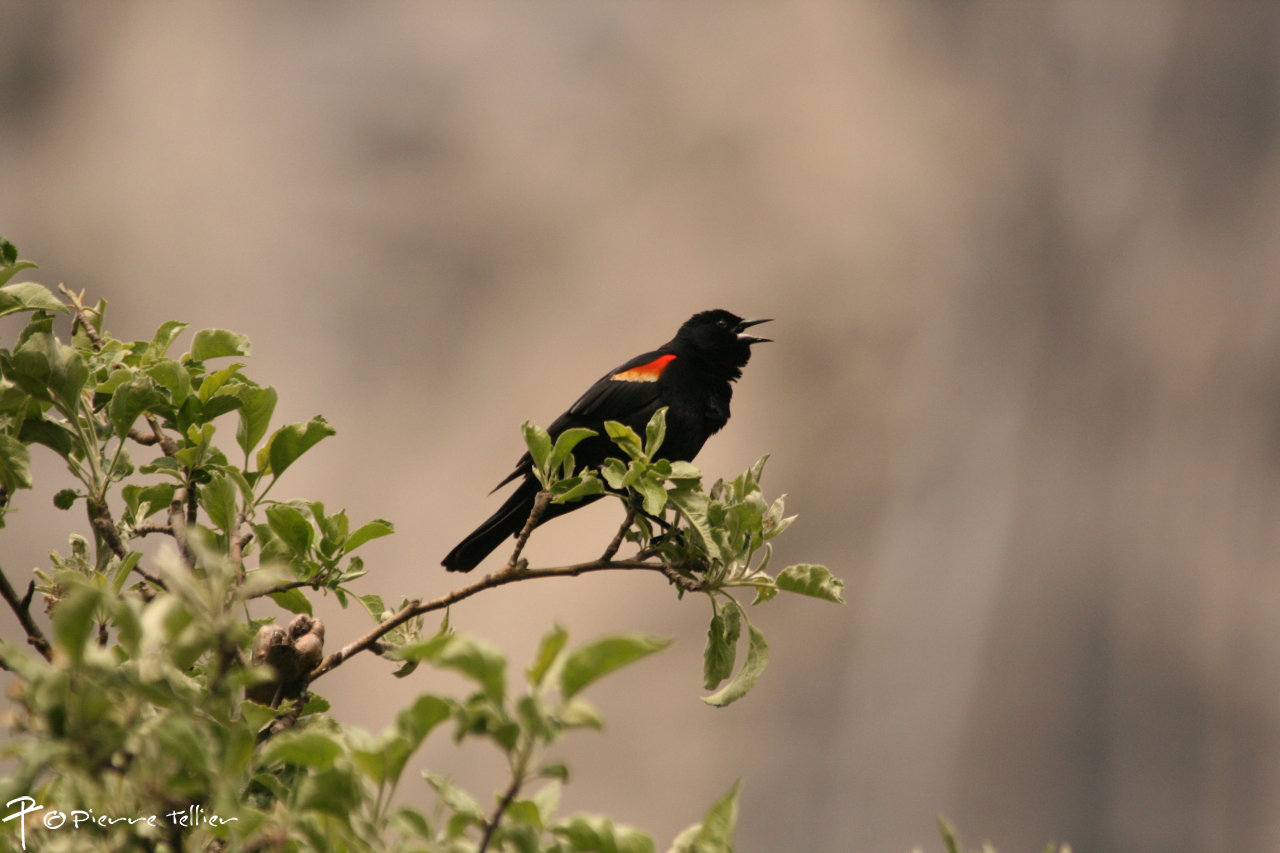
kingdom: Animalia
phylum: Chordata
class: Aves
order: Passeriformes
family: Icteridae
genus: Agelaius
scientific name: Agelaius phoeniceus
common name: Red-winged blackbird
